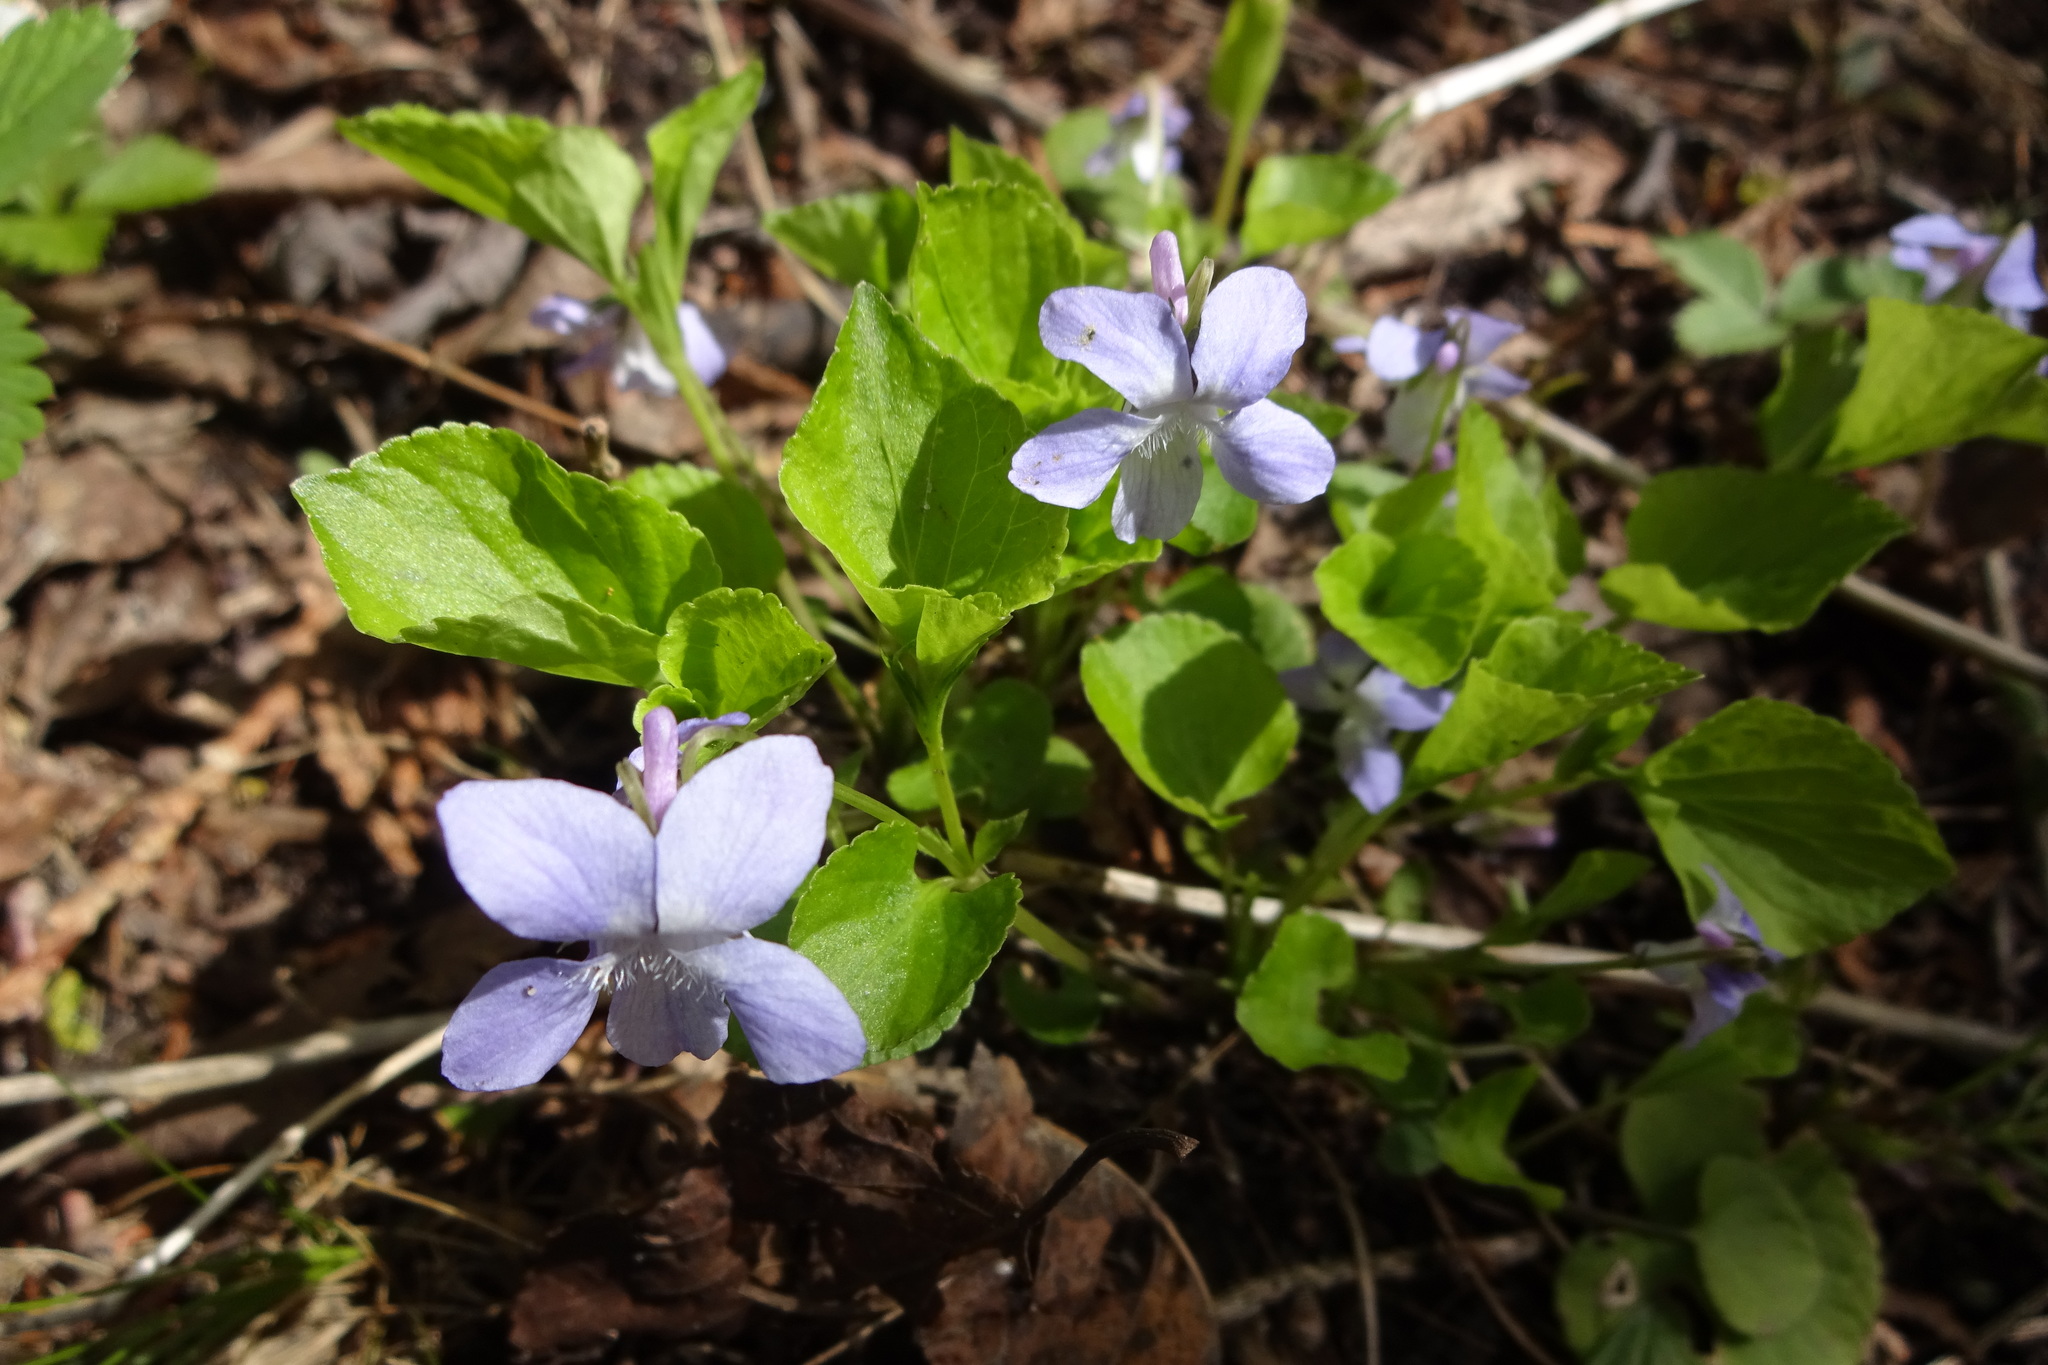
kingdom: Plantae
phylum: Tracheophyta
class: Magnoliopsida
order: Malpighiales
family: Violaceae
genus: Viola
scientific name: Viola labradorica
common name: Labrador violet
